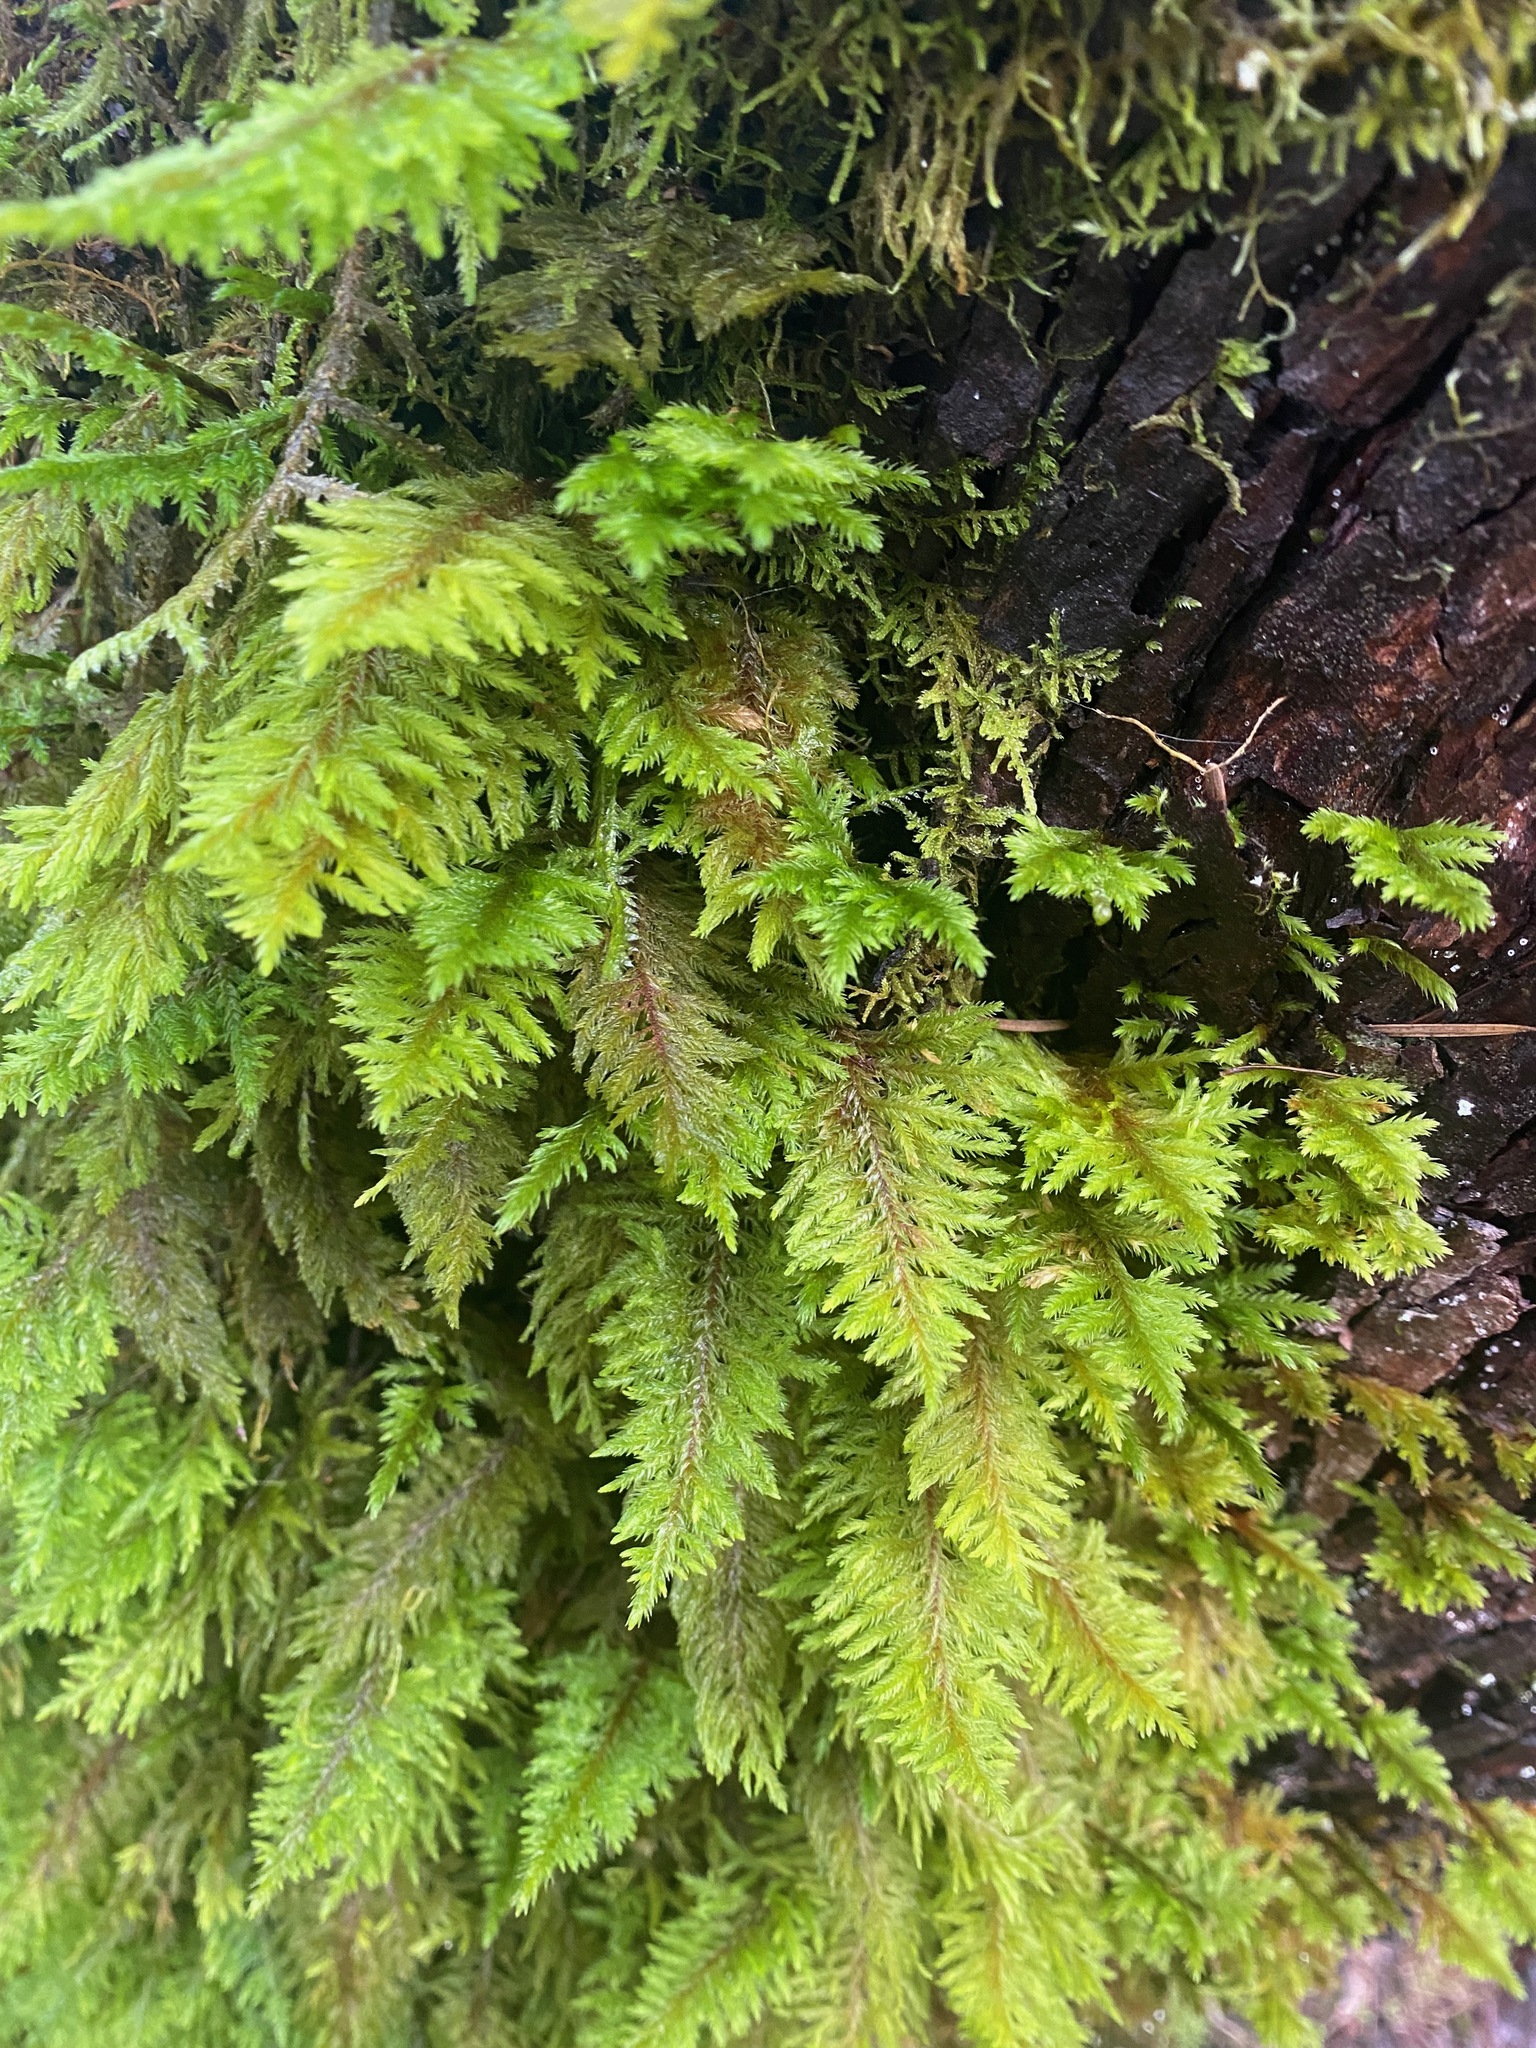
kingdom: Plantae
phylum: Bryophyta
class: Bryopsida
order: Hypnales
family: Cryphaeaceae
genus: Dendroalsia
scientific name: Dendroalsia abietina
